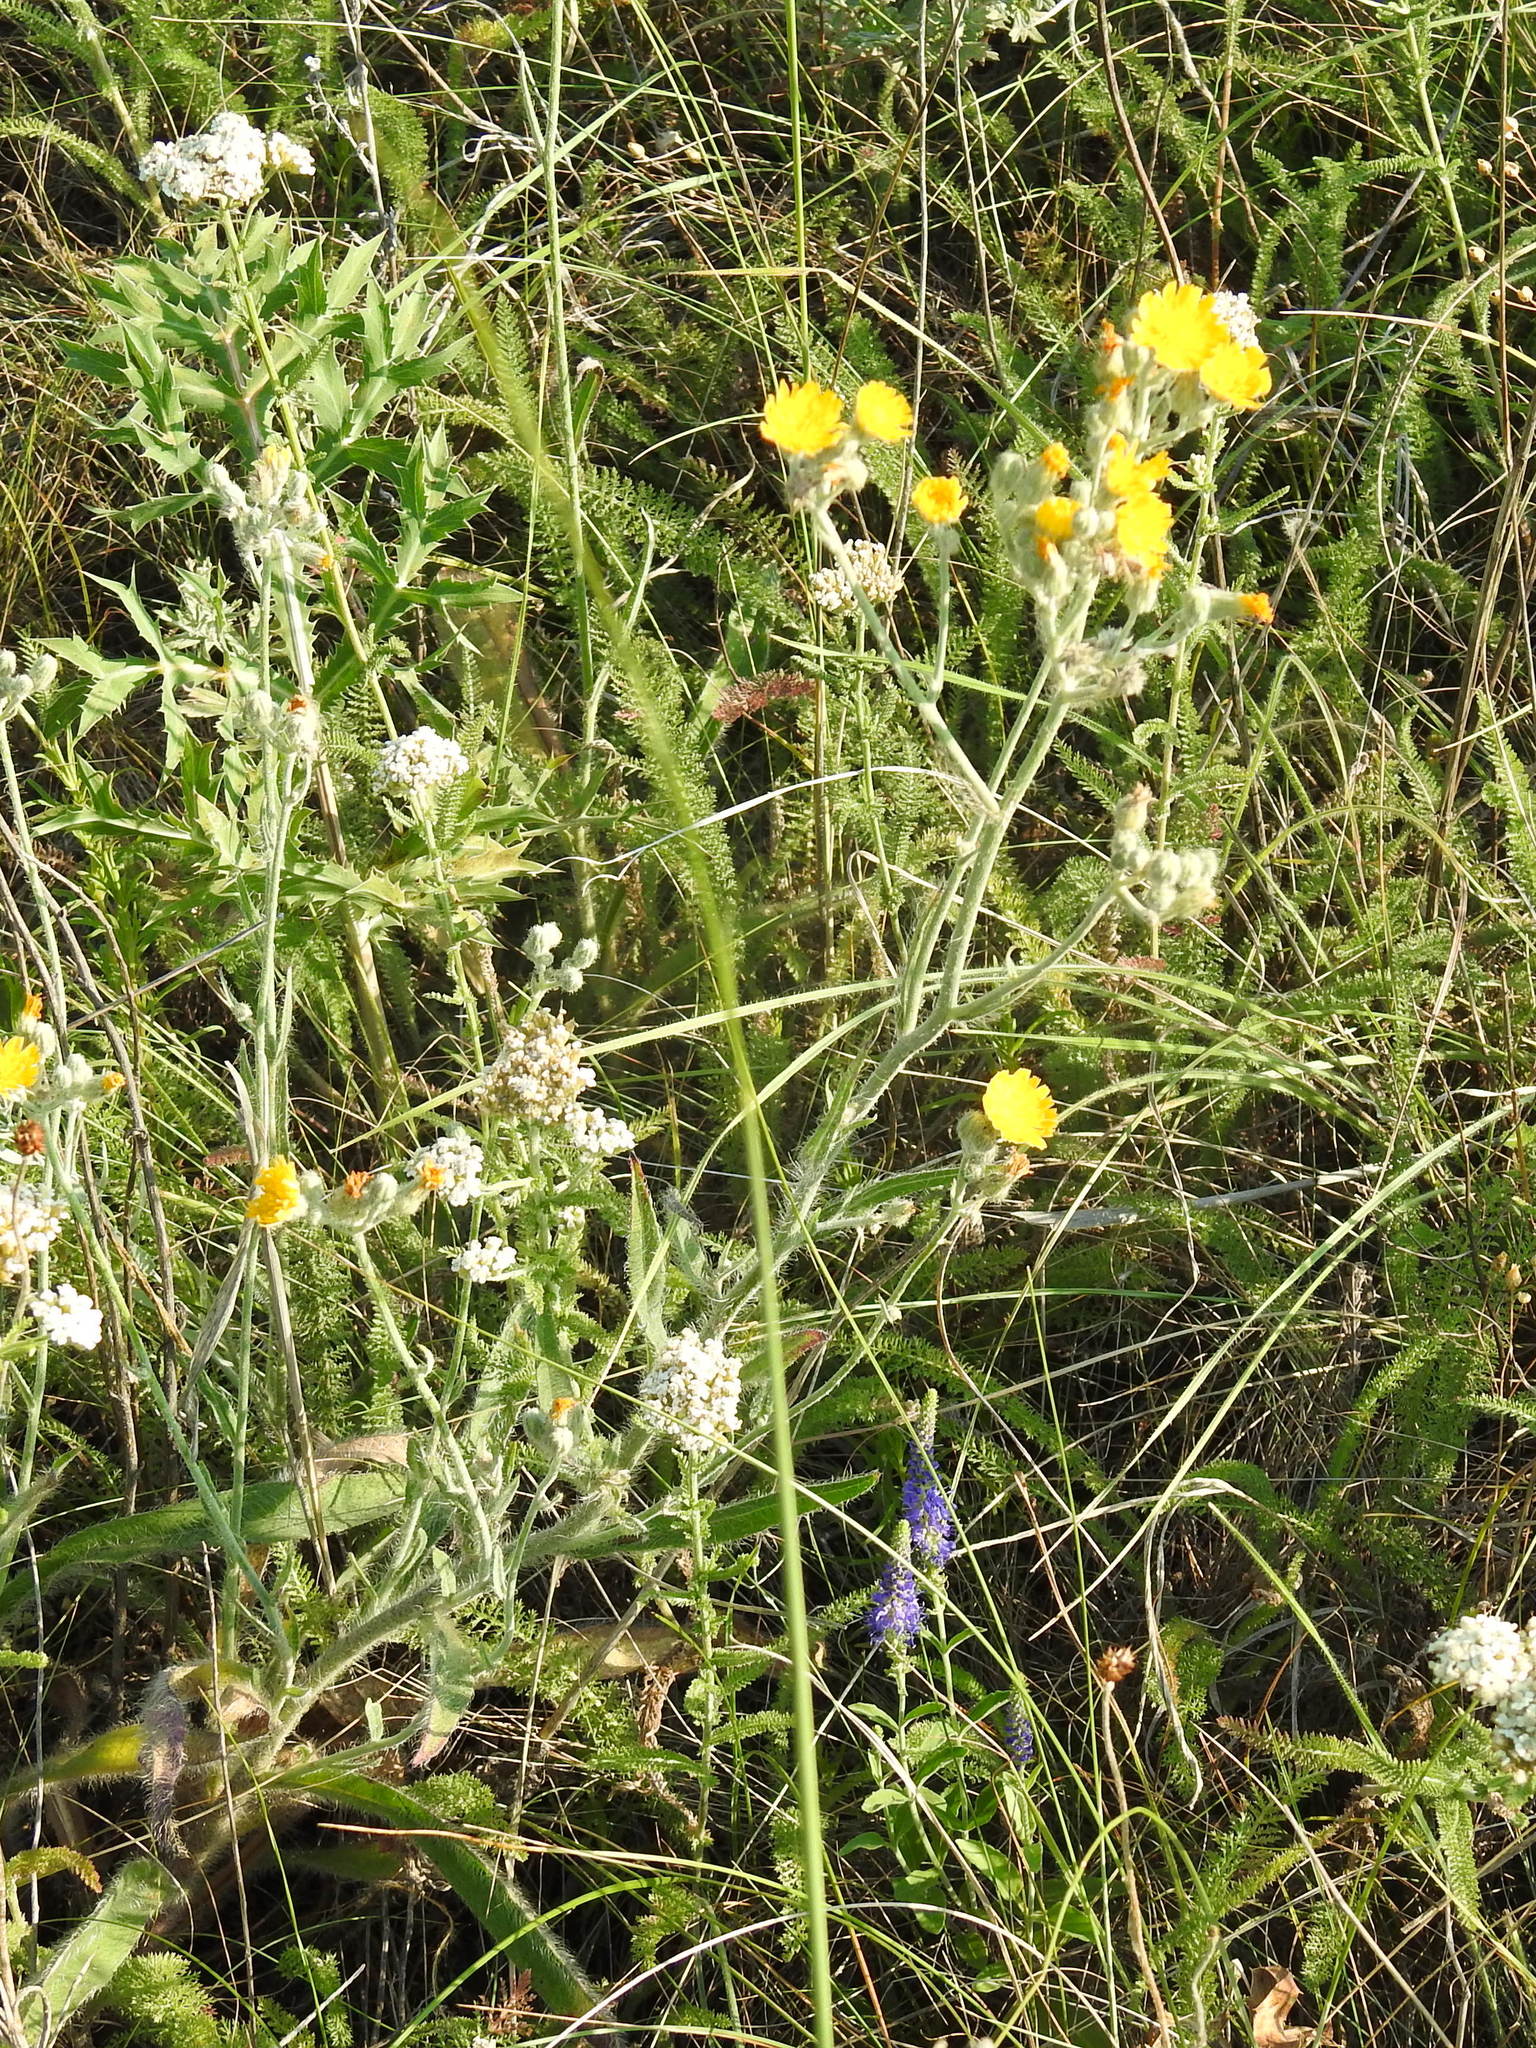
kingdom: Plantae
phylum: Tracheophyta
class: Magnoliopsida
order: Asterales
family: Asteraceae
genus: Pilosella
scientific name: Pilosella echioides
